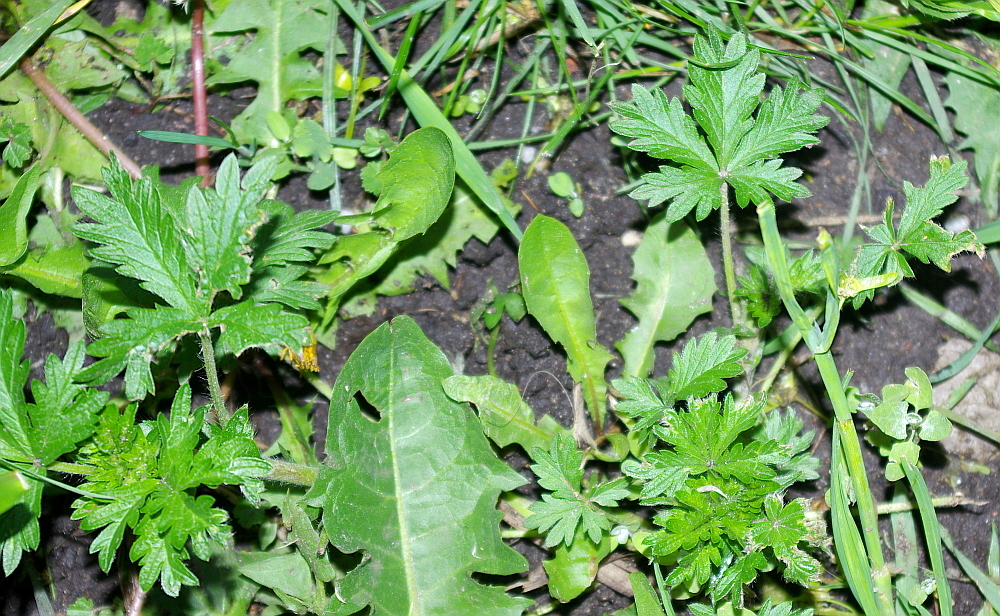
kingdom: Plantae
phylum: Tracheophyta
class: Magnoliopsida
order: Rosales
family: Rosaceae
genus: Potentilla
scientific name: Potentilla erecta
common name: Tormentil
